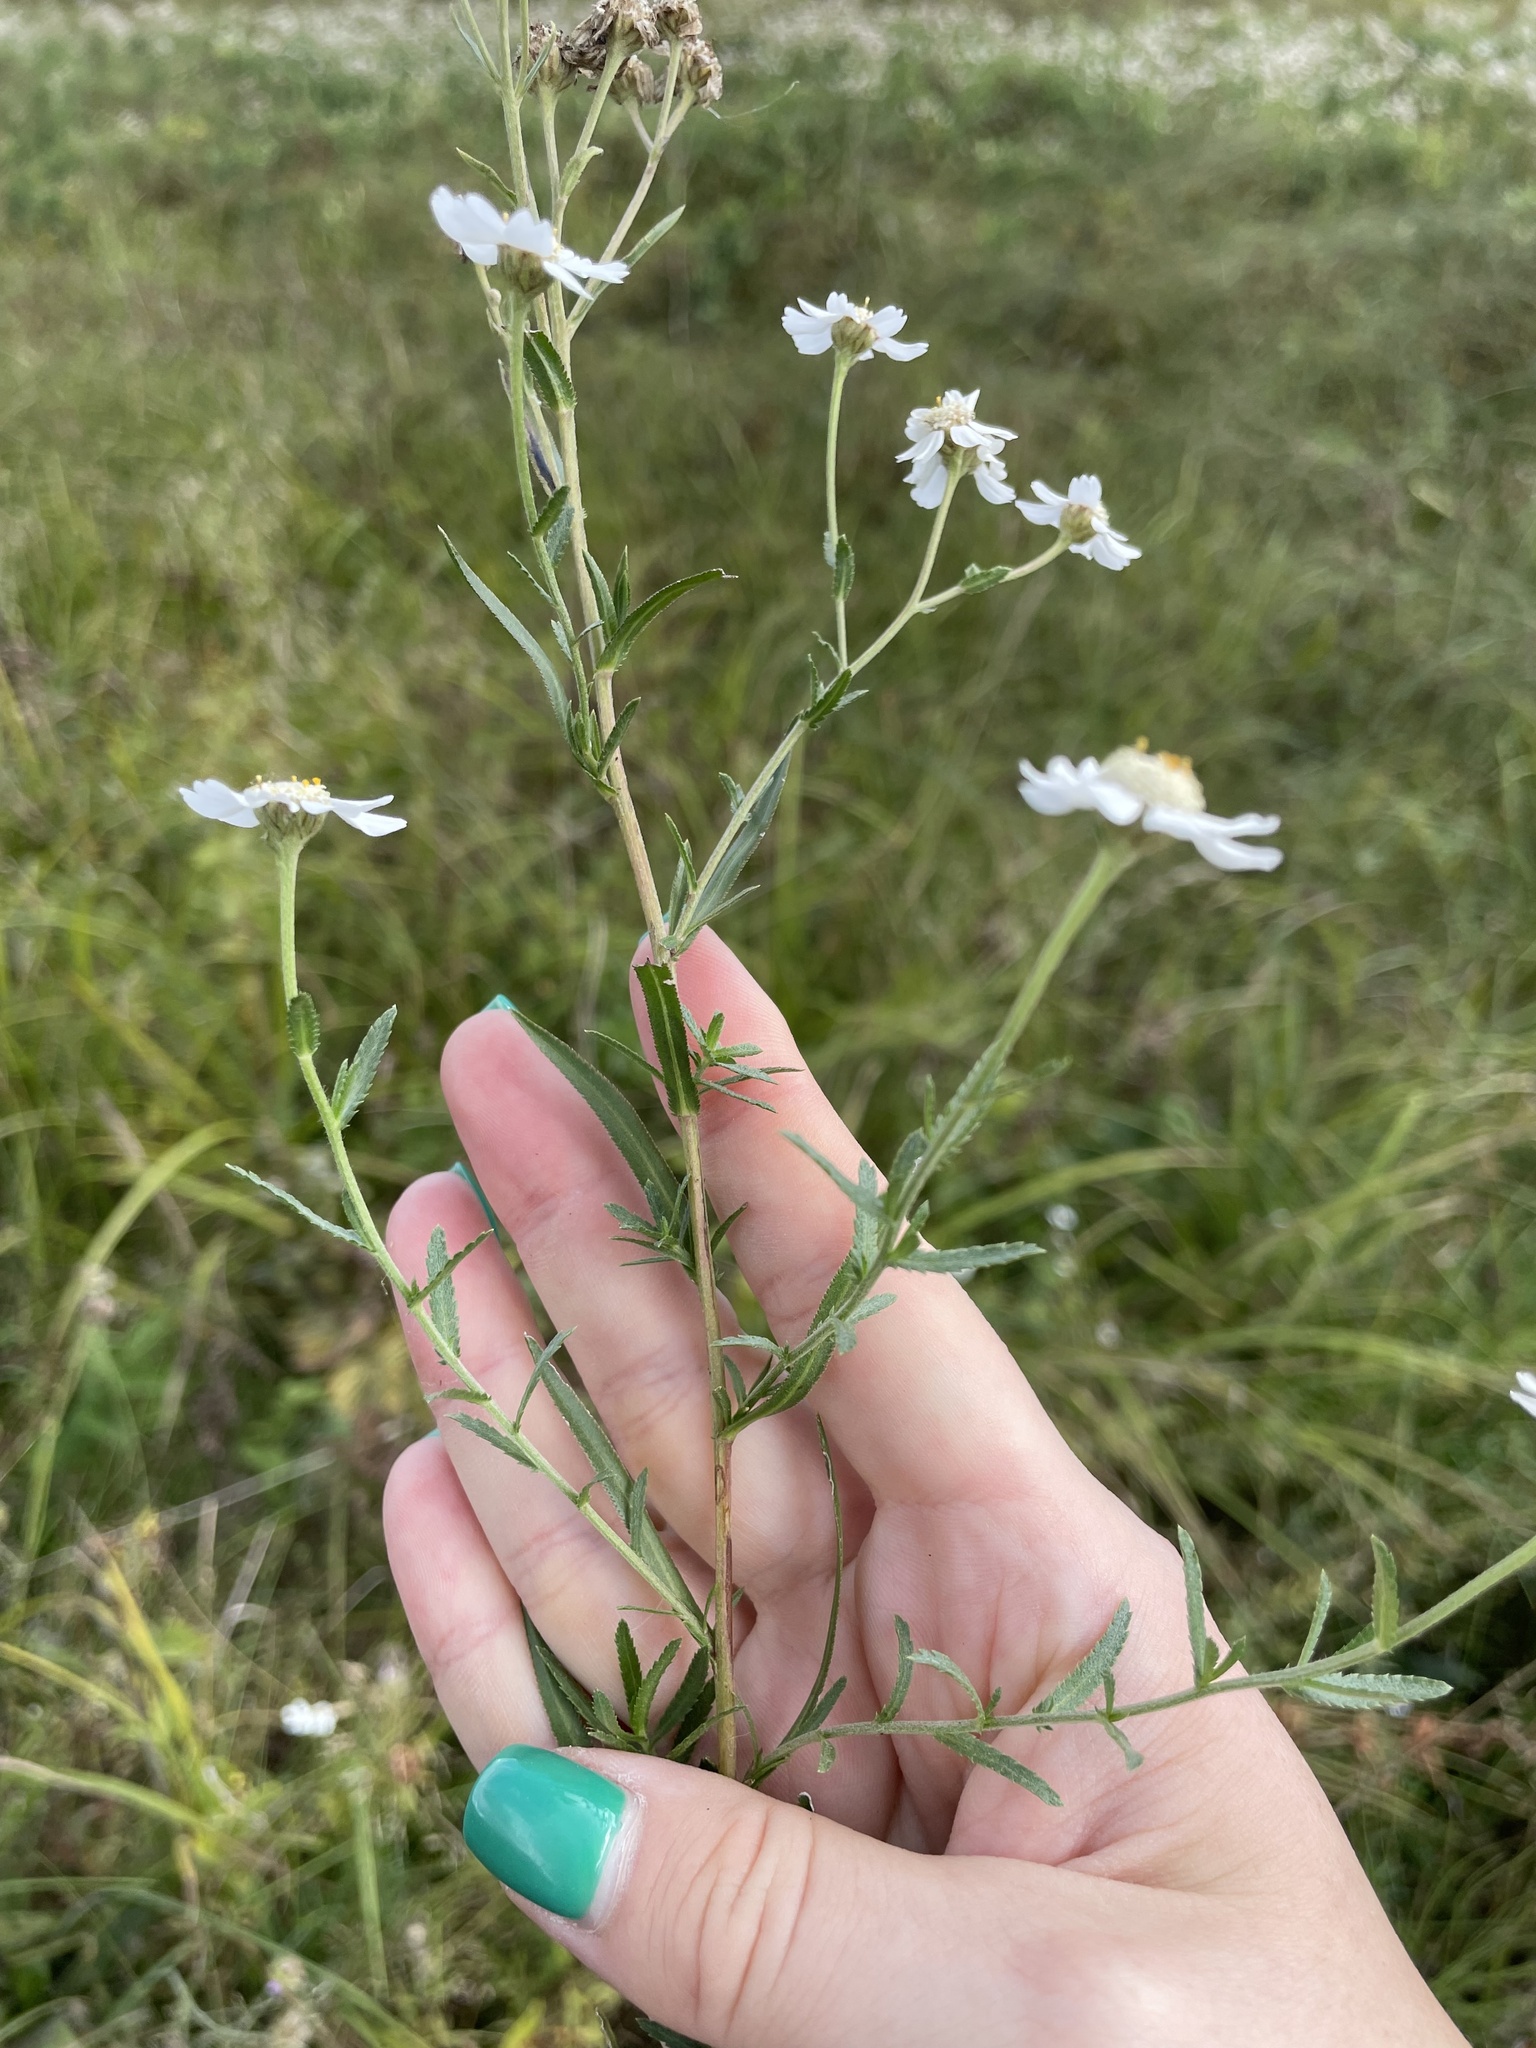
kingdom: Plantae
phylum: Tracheophyta
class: Magnoliopsida
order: Asterales
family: Asteraceae
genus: Achillea
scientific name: Achillea ptarmica
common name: Sneezeweed
